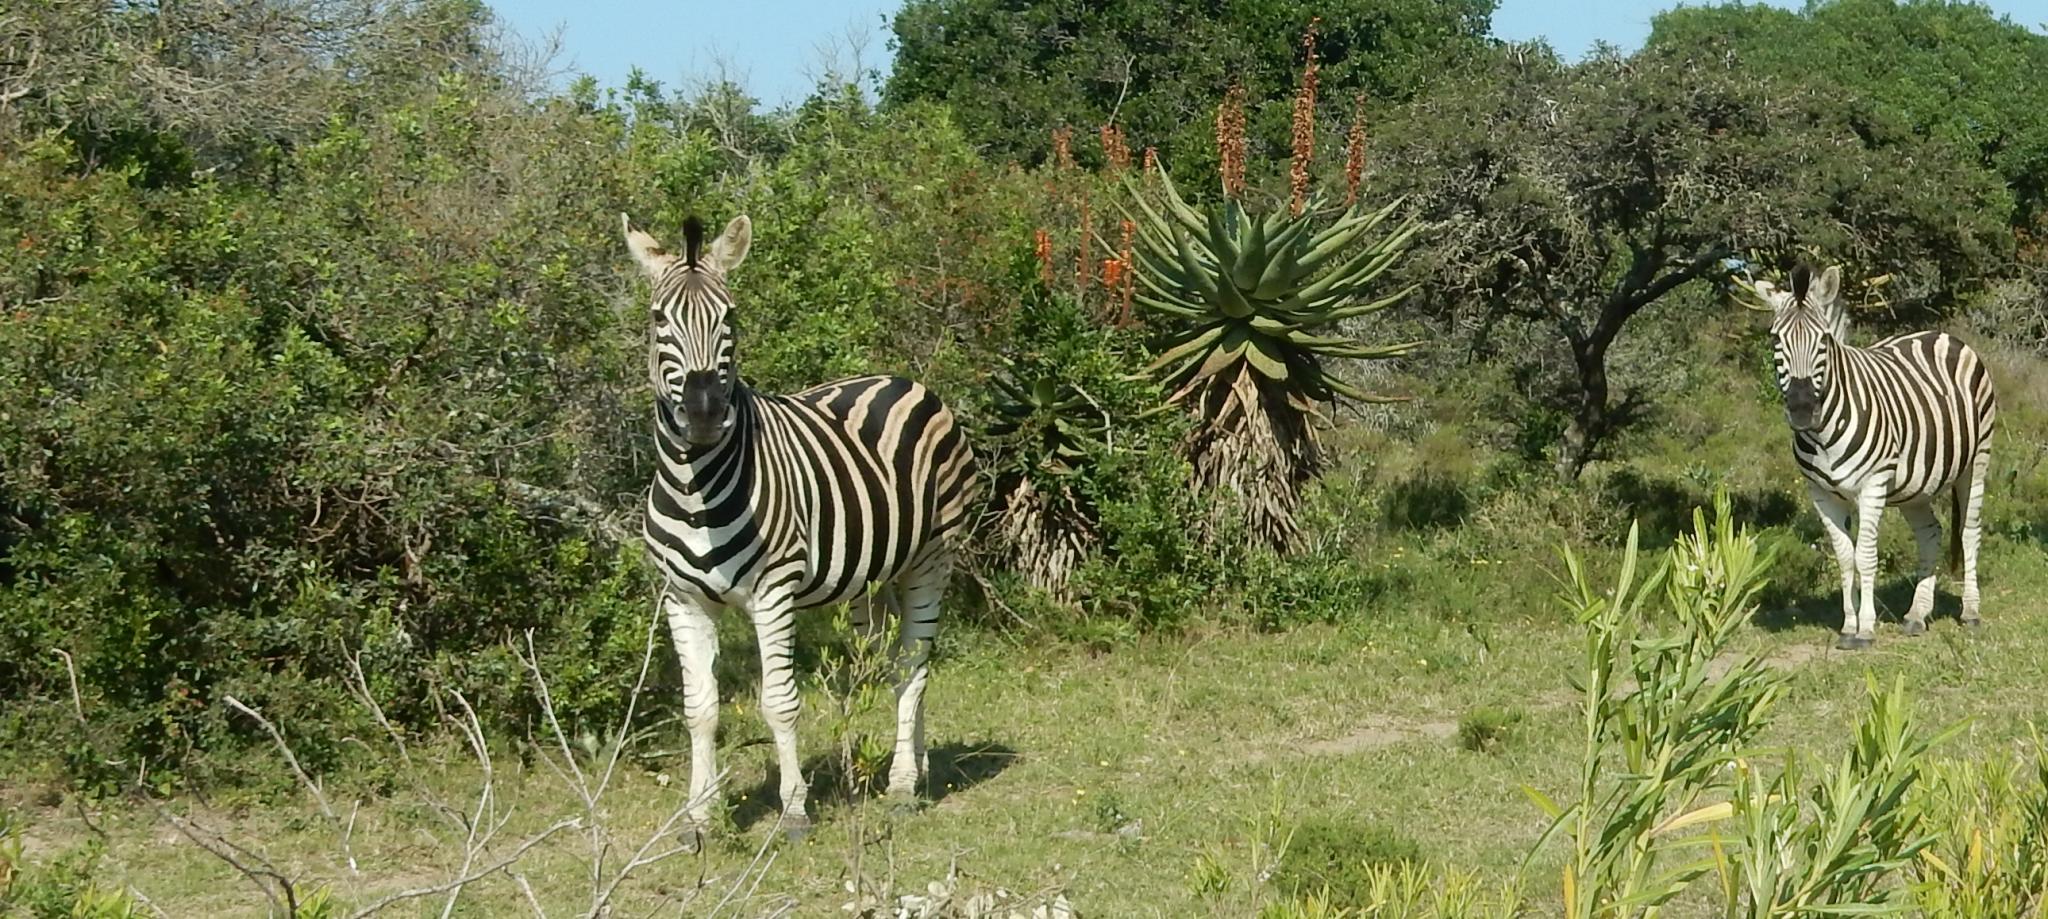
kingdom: Animalia
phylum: Chordata
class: Mammalia
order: Perissodactyla
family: Equidae
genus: Equus
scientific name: Equus quagga
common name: Plains zebra
